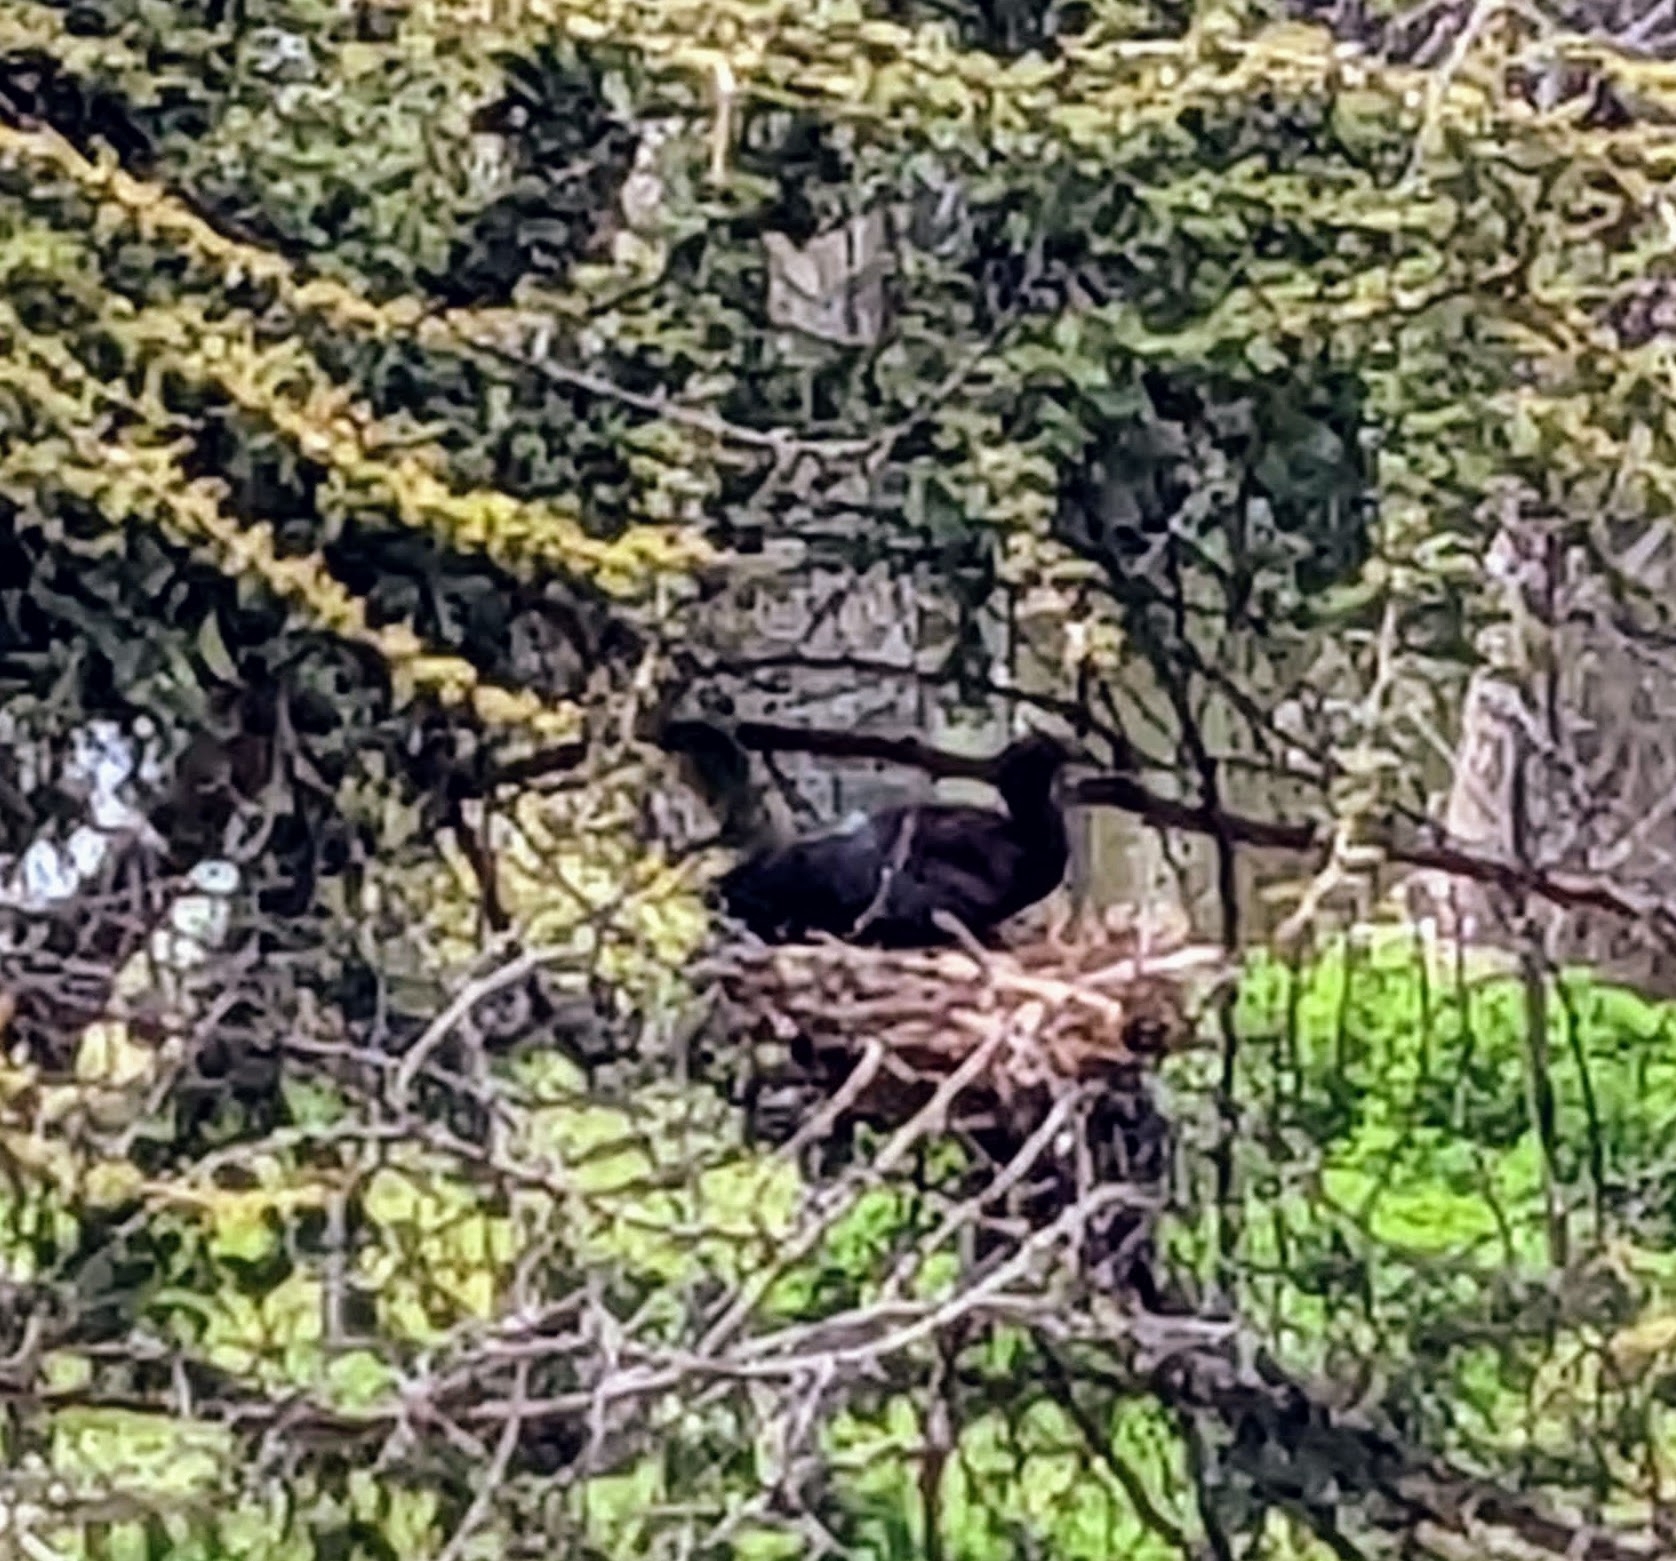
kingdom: Animalia
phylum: Chordata
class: Aves
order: Pelecaniformes
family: Threskiornithidae
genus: Plegadis
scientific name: Plegadis chihi
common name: White-faced ibis
